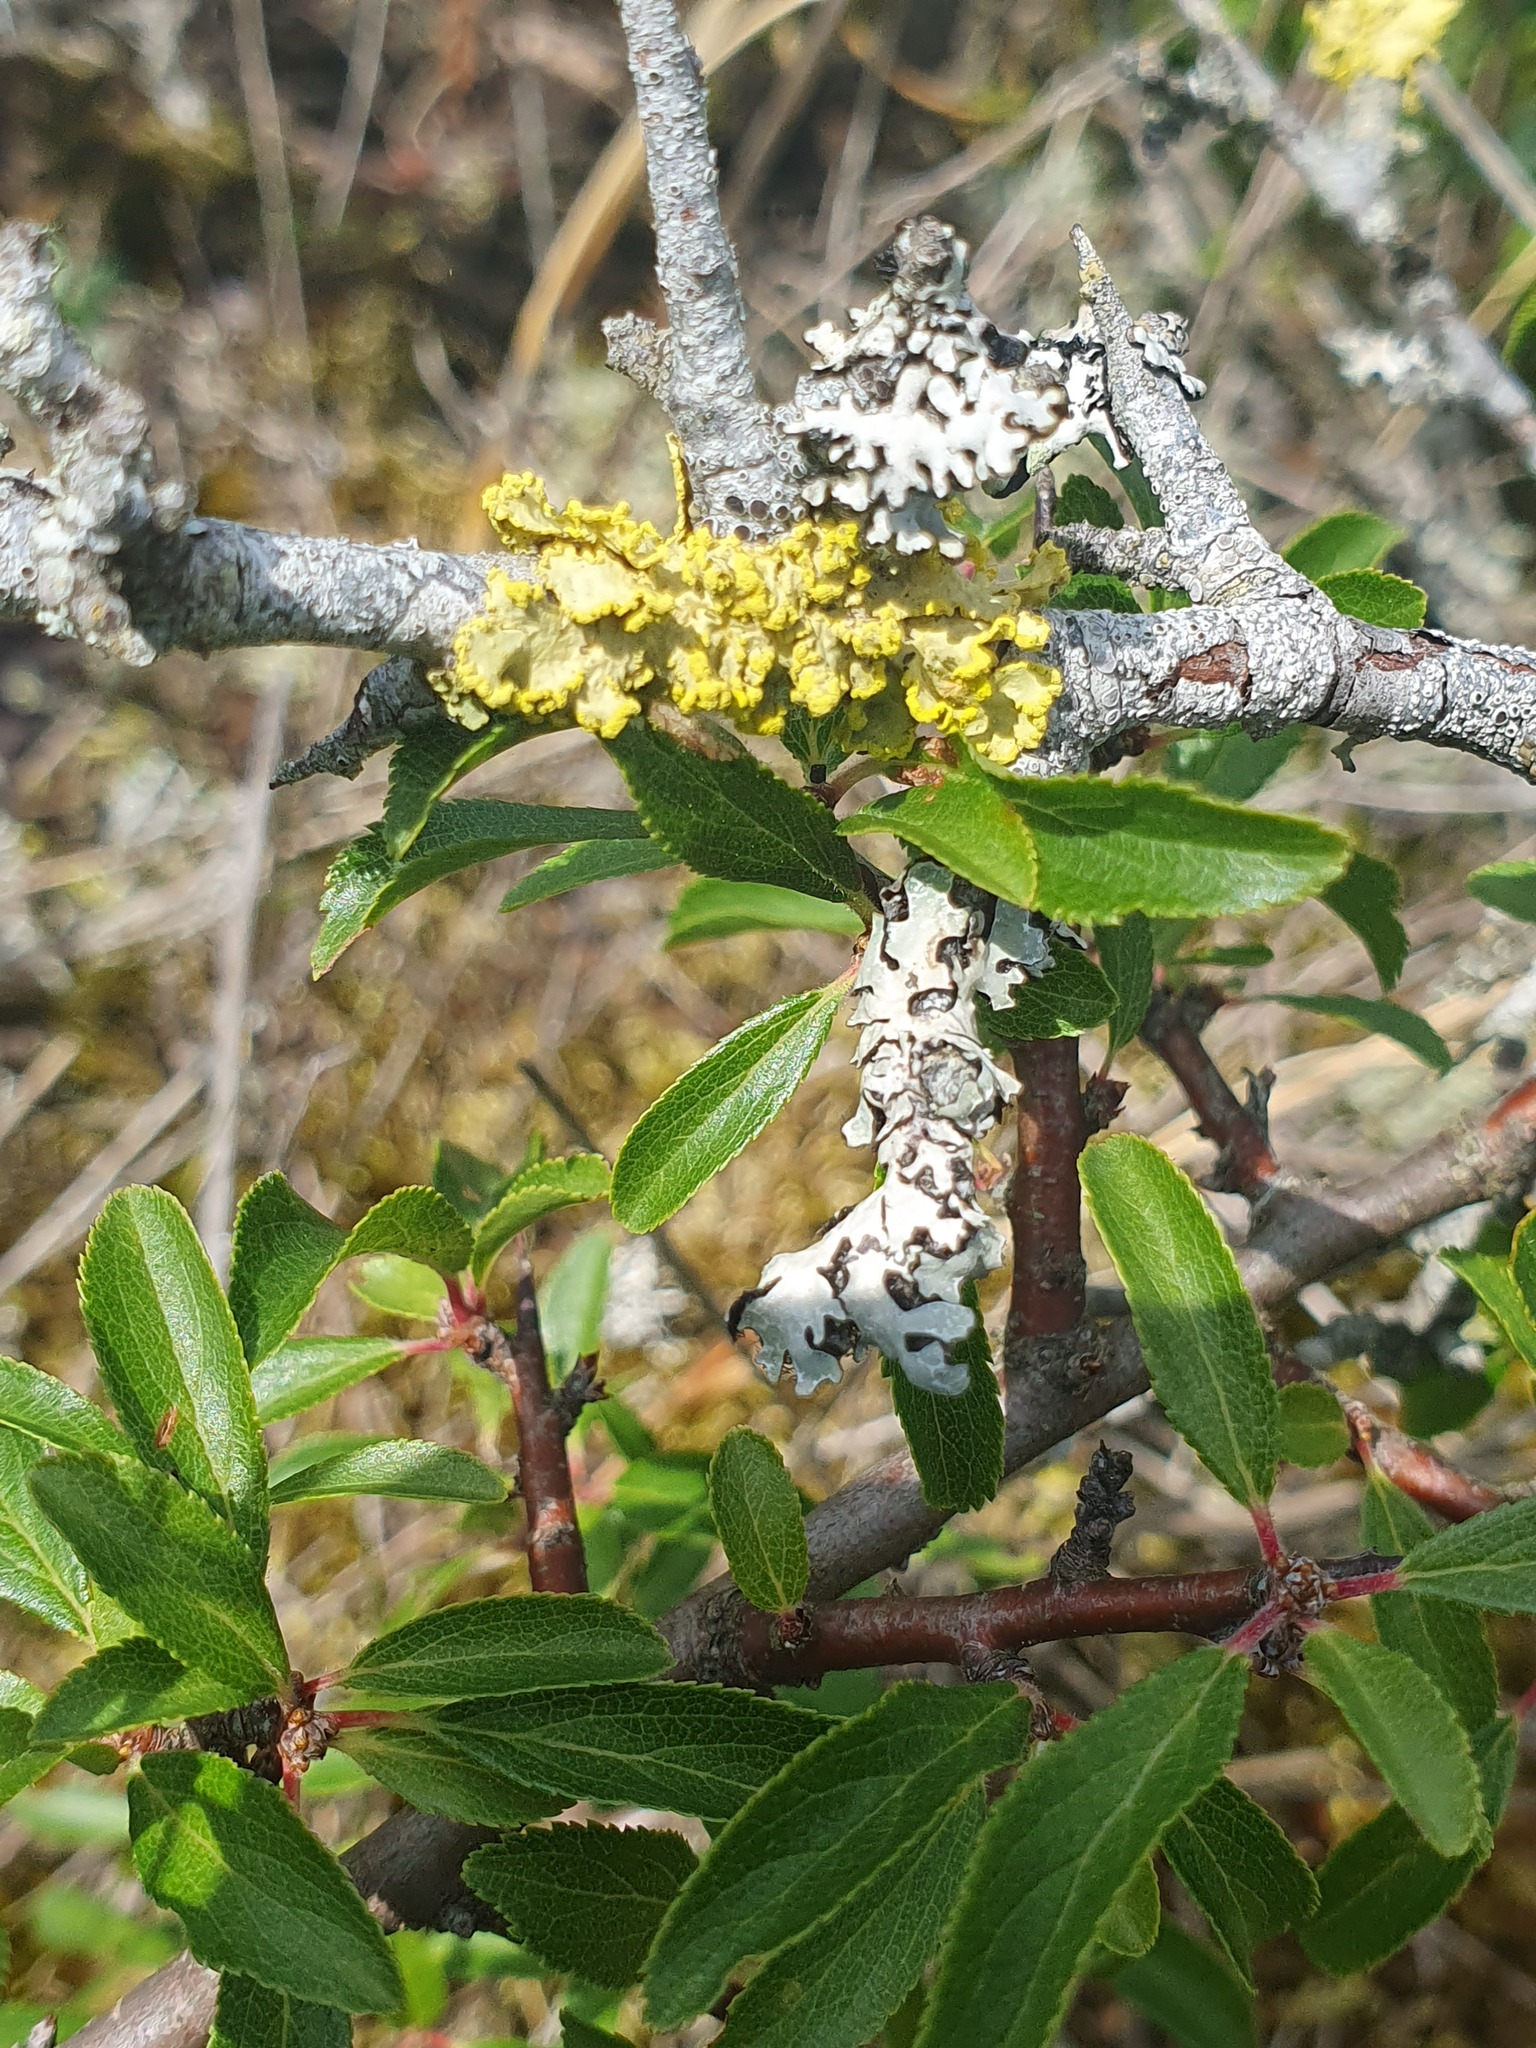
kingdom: Fungi
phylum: Ascomycota
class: Lecanoromycetes
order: Lecanorales
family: Parmeliaceae
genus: Parmelia
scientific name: Parmelia sulcata
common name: Netted shield lichen
